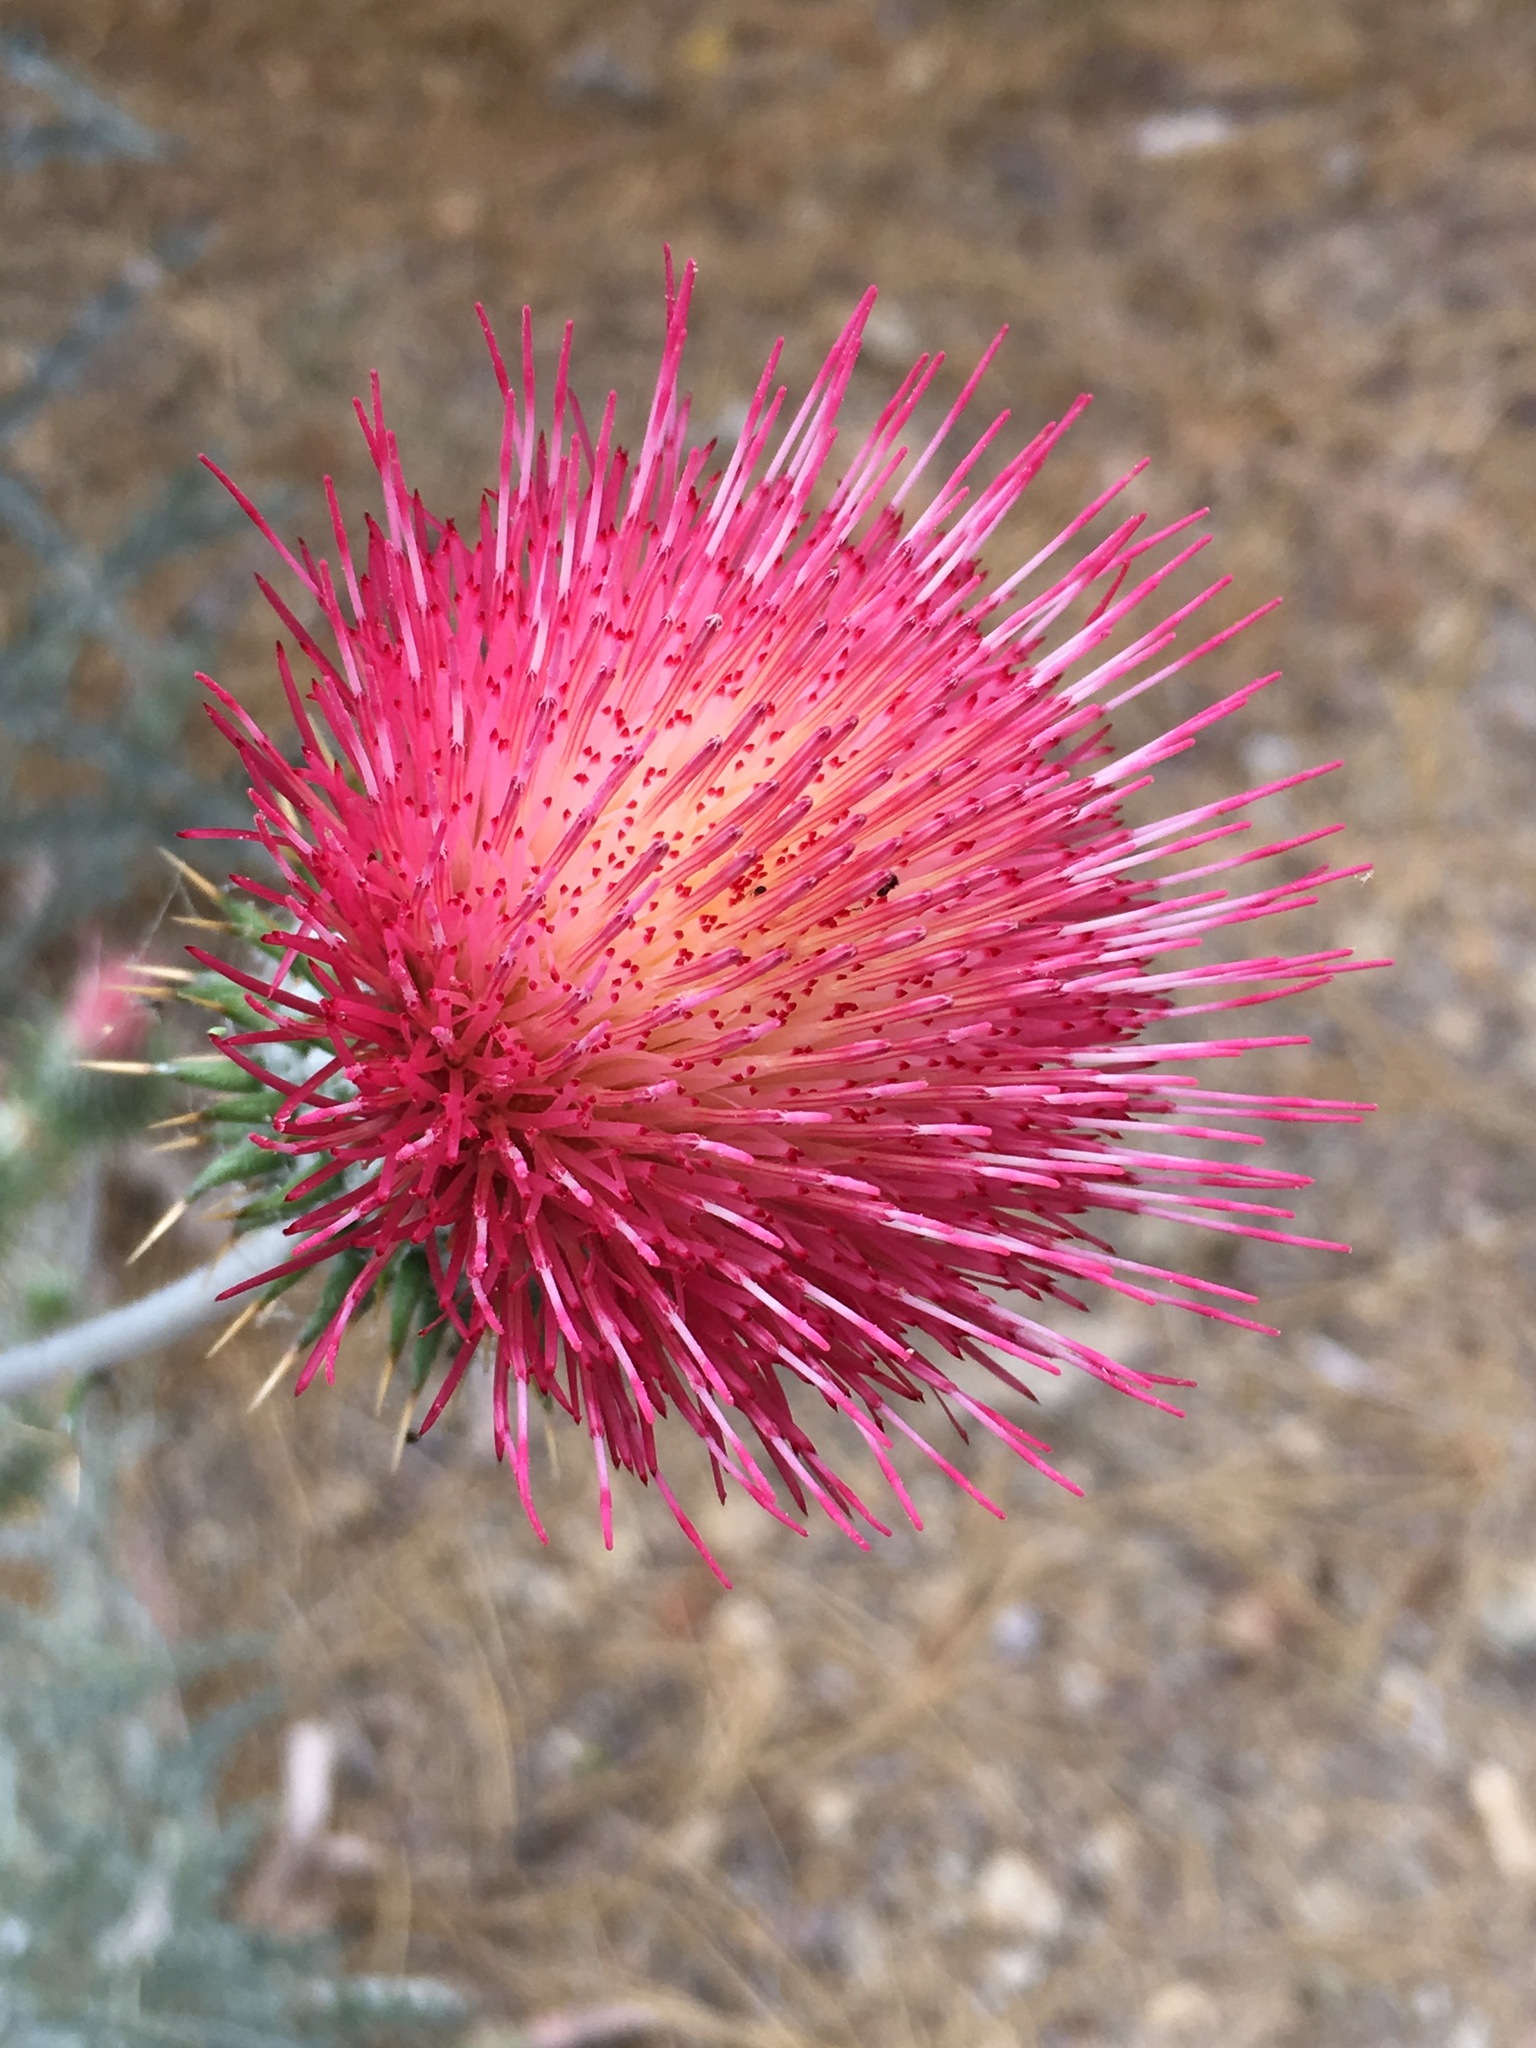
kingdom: Plantae
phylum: Tracheophyta
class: Magnoliopsida
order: Asterales
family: Asteraceae
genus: Cirsium
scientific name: Cirsium occidentale
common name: Western thistle
